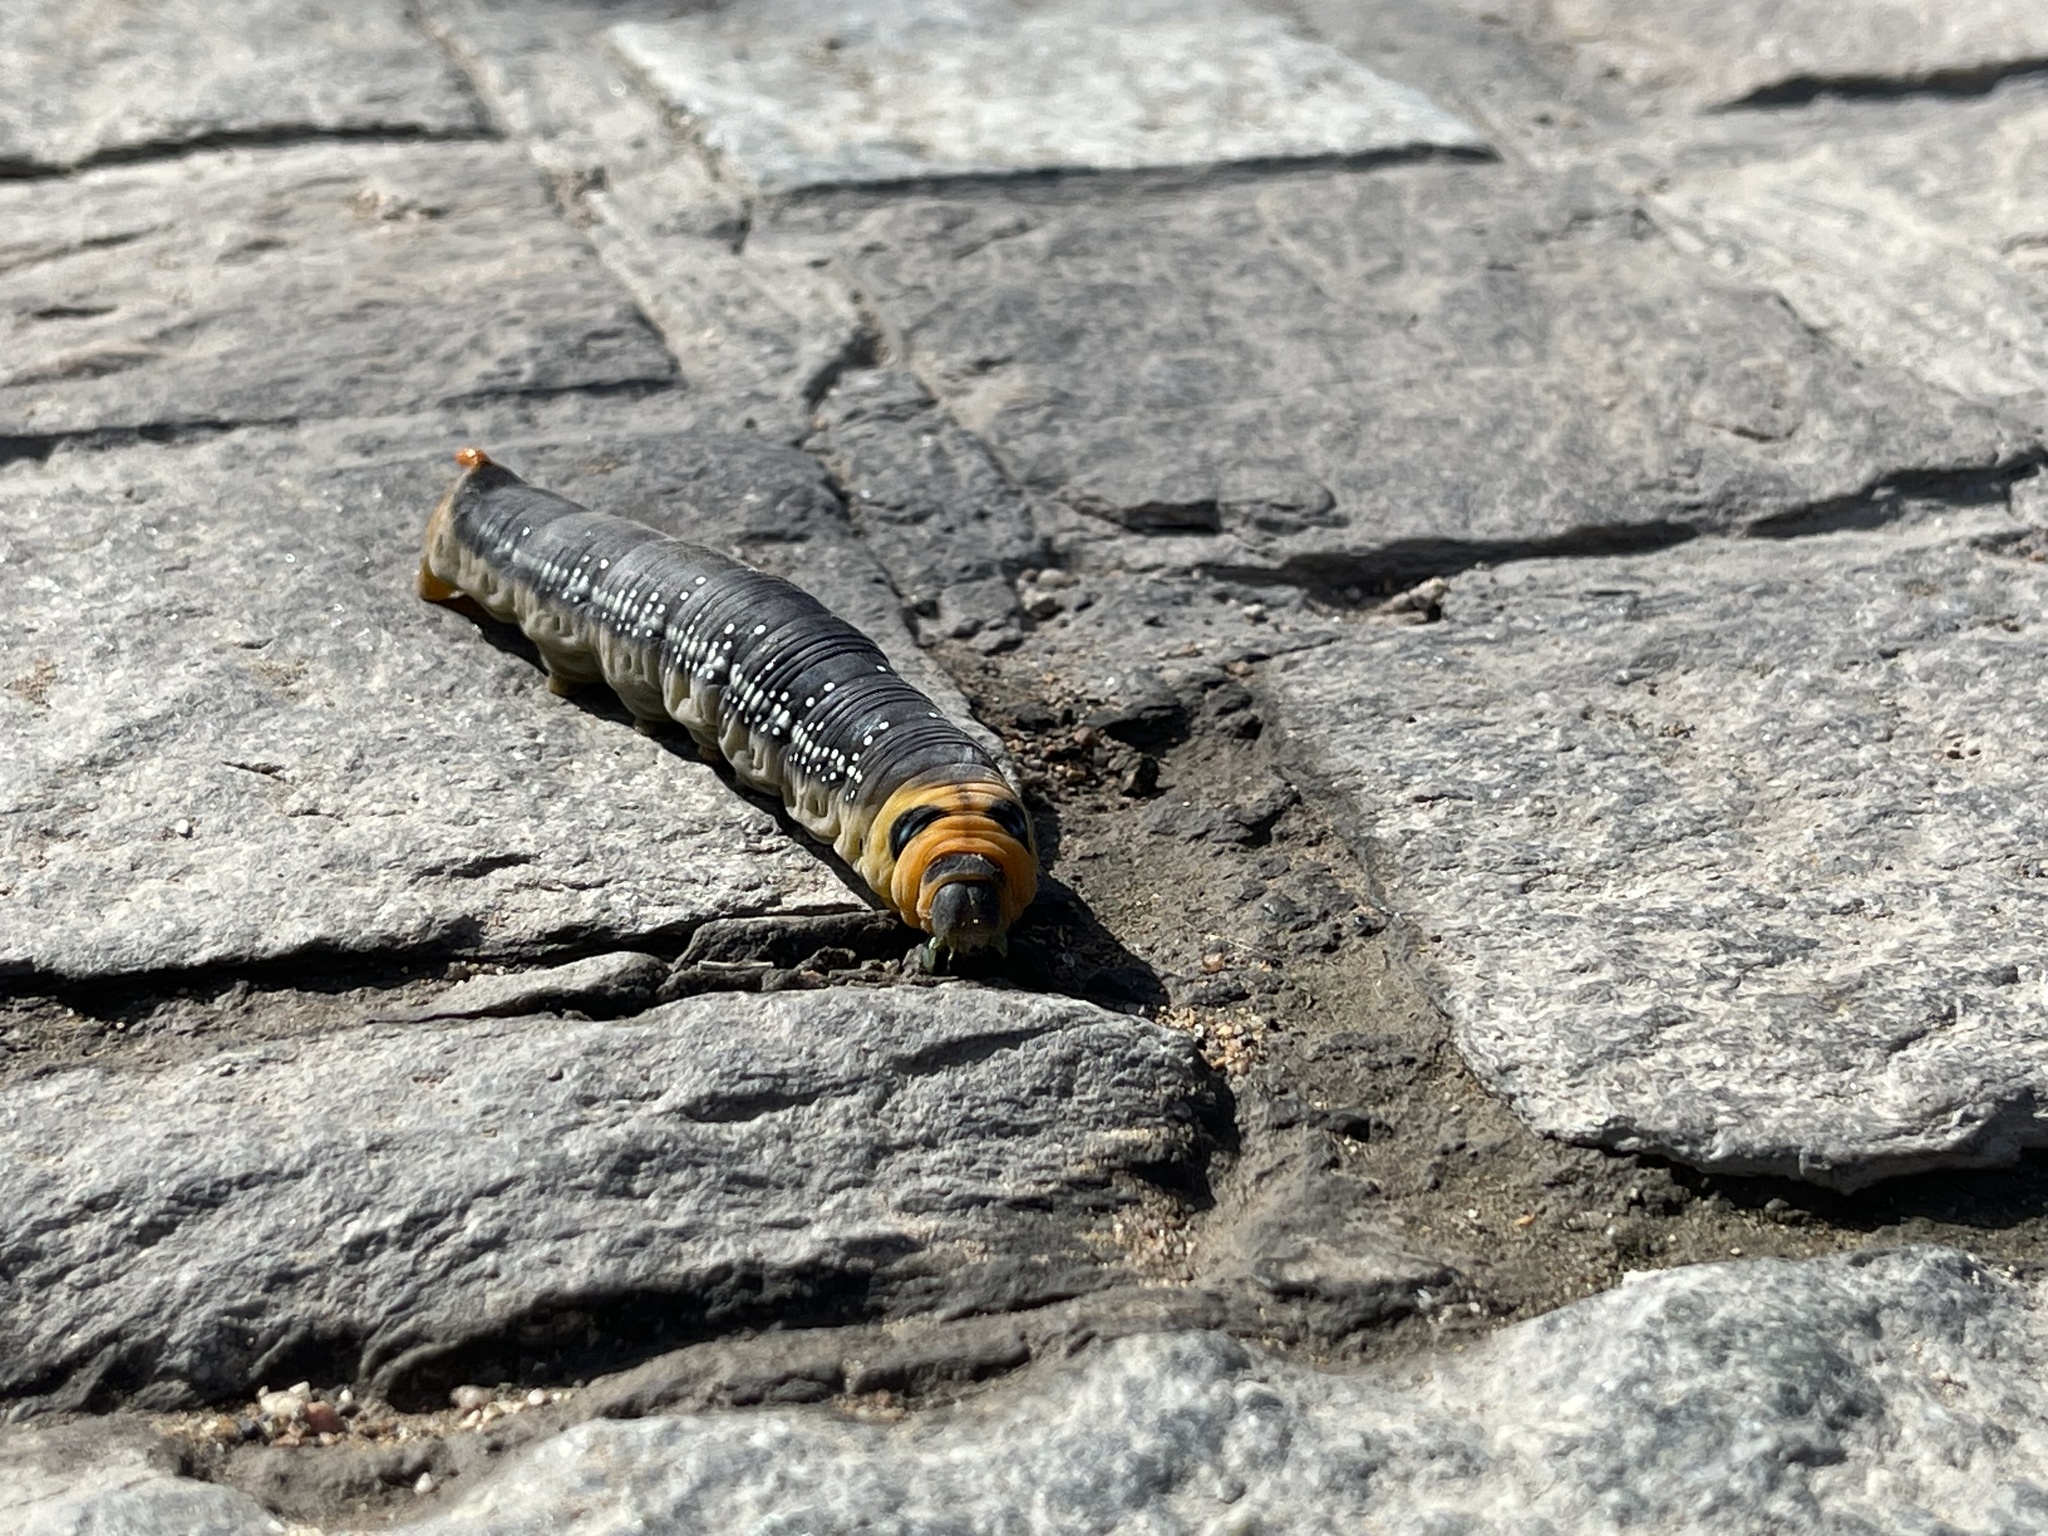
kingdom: Animalia
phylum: Arthropoda
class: Insecta
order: Lepidoptera
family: Sphingidae
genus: Daphnis
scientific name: Daphnis nerii
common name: Oleander hawk-moth
